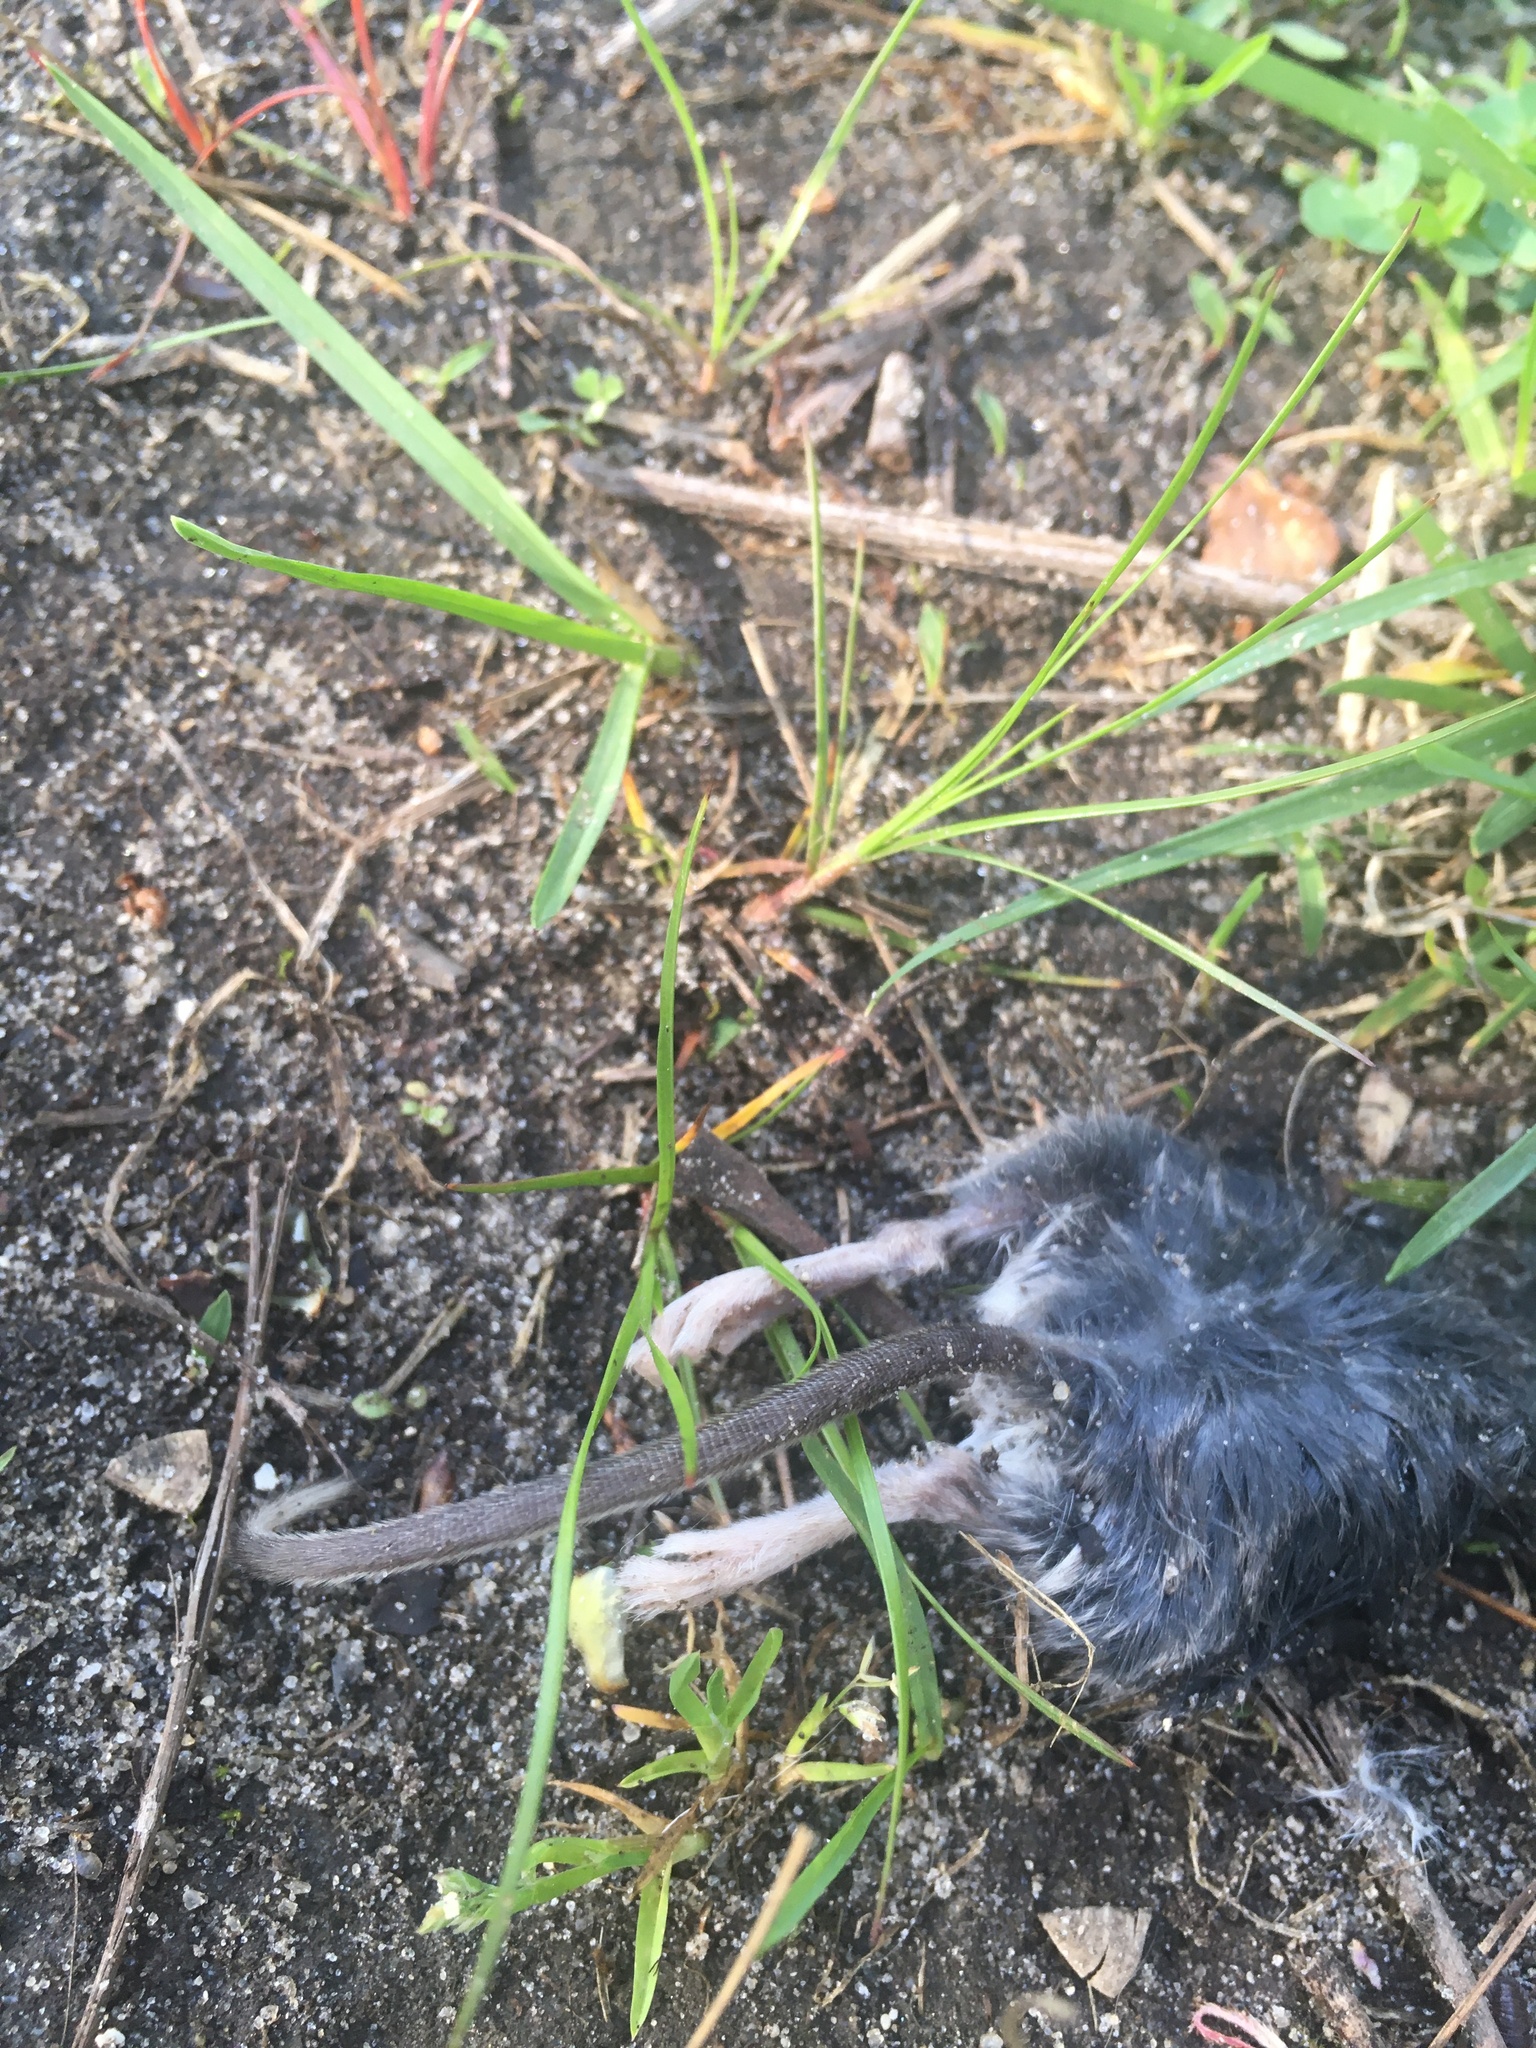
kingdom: Animalia
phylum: Chordata
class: Mammalia
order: Rodentia
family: Cricetidae
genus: Peromyscus
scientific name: Peromyscus leucopus
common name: White-footed deermouse
